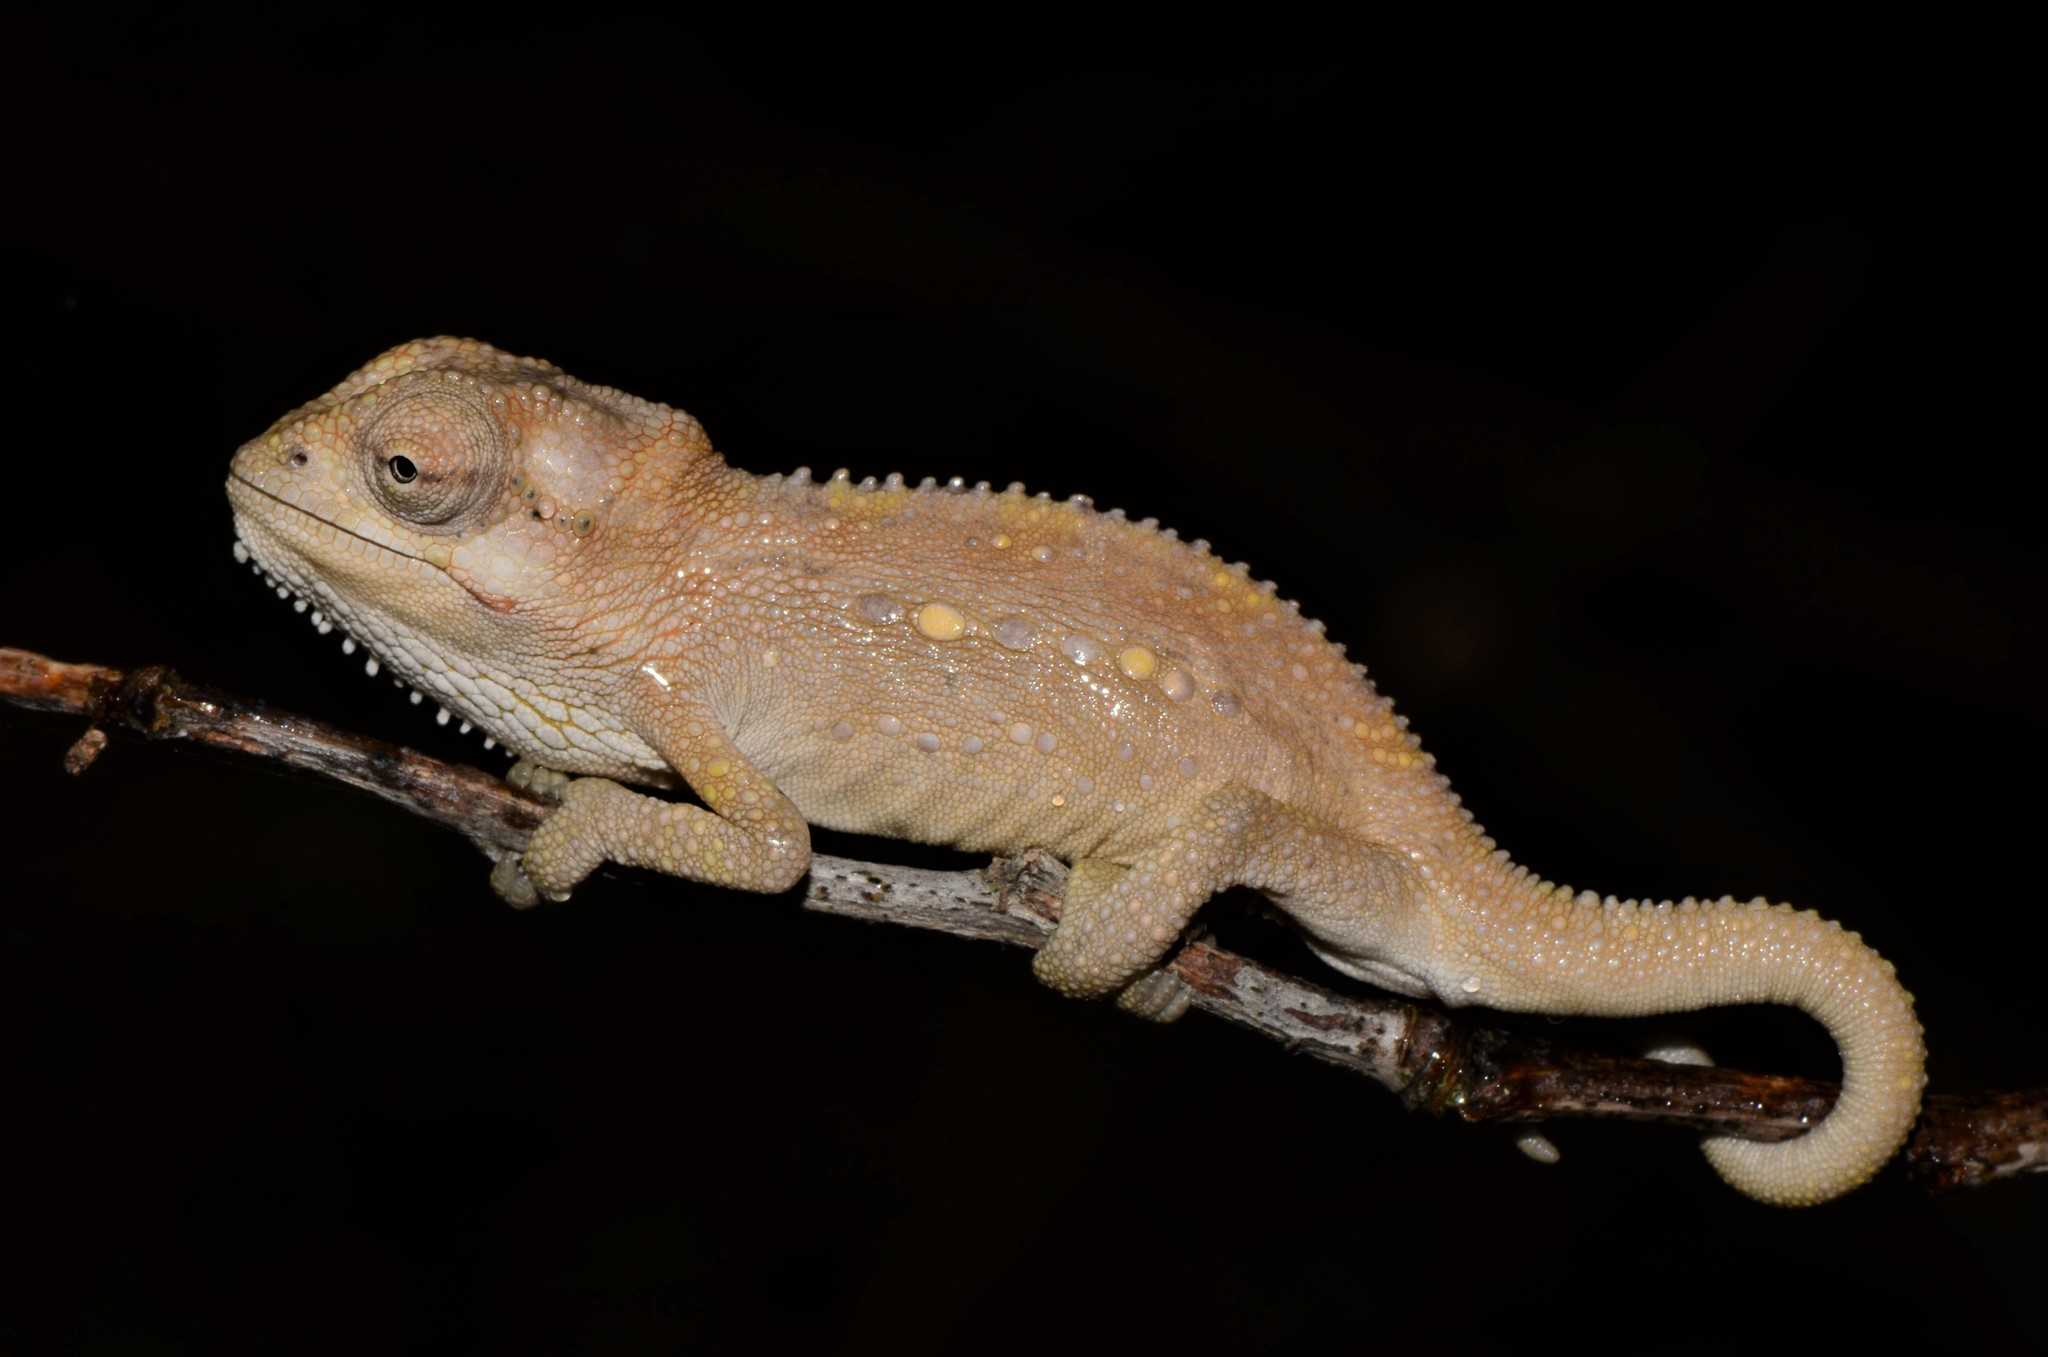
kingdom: Animalia
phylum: Chordata
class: Squamata
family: Chamaeleonidae
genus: Bradypodion
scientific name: Bradypodion pumilum
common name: Cape dwarf chameleon
